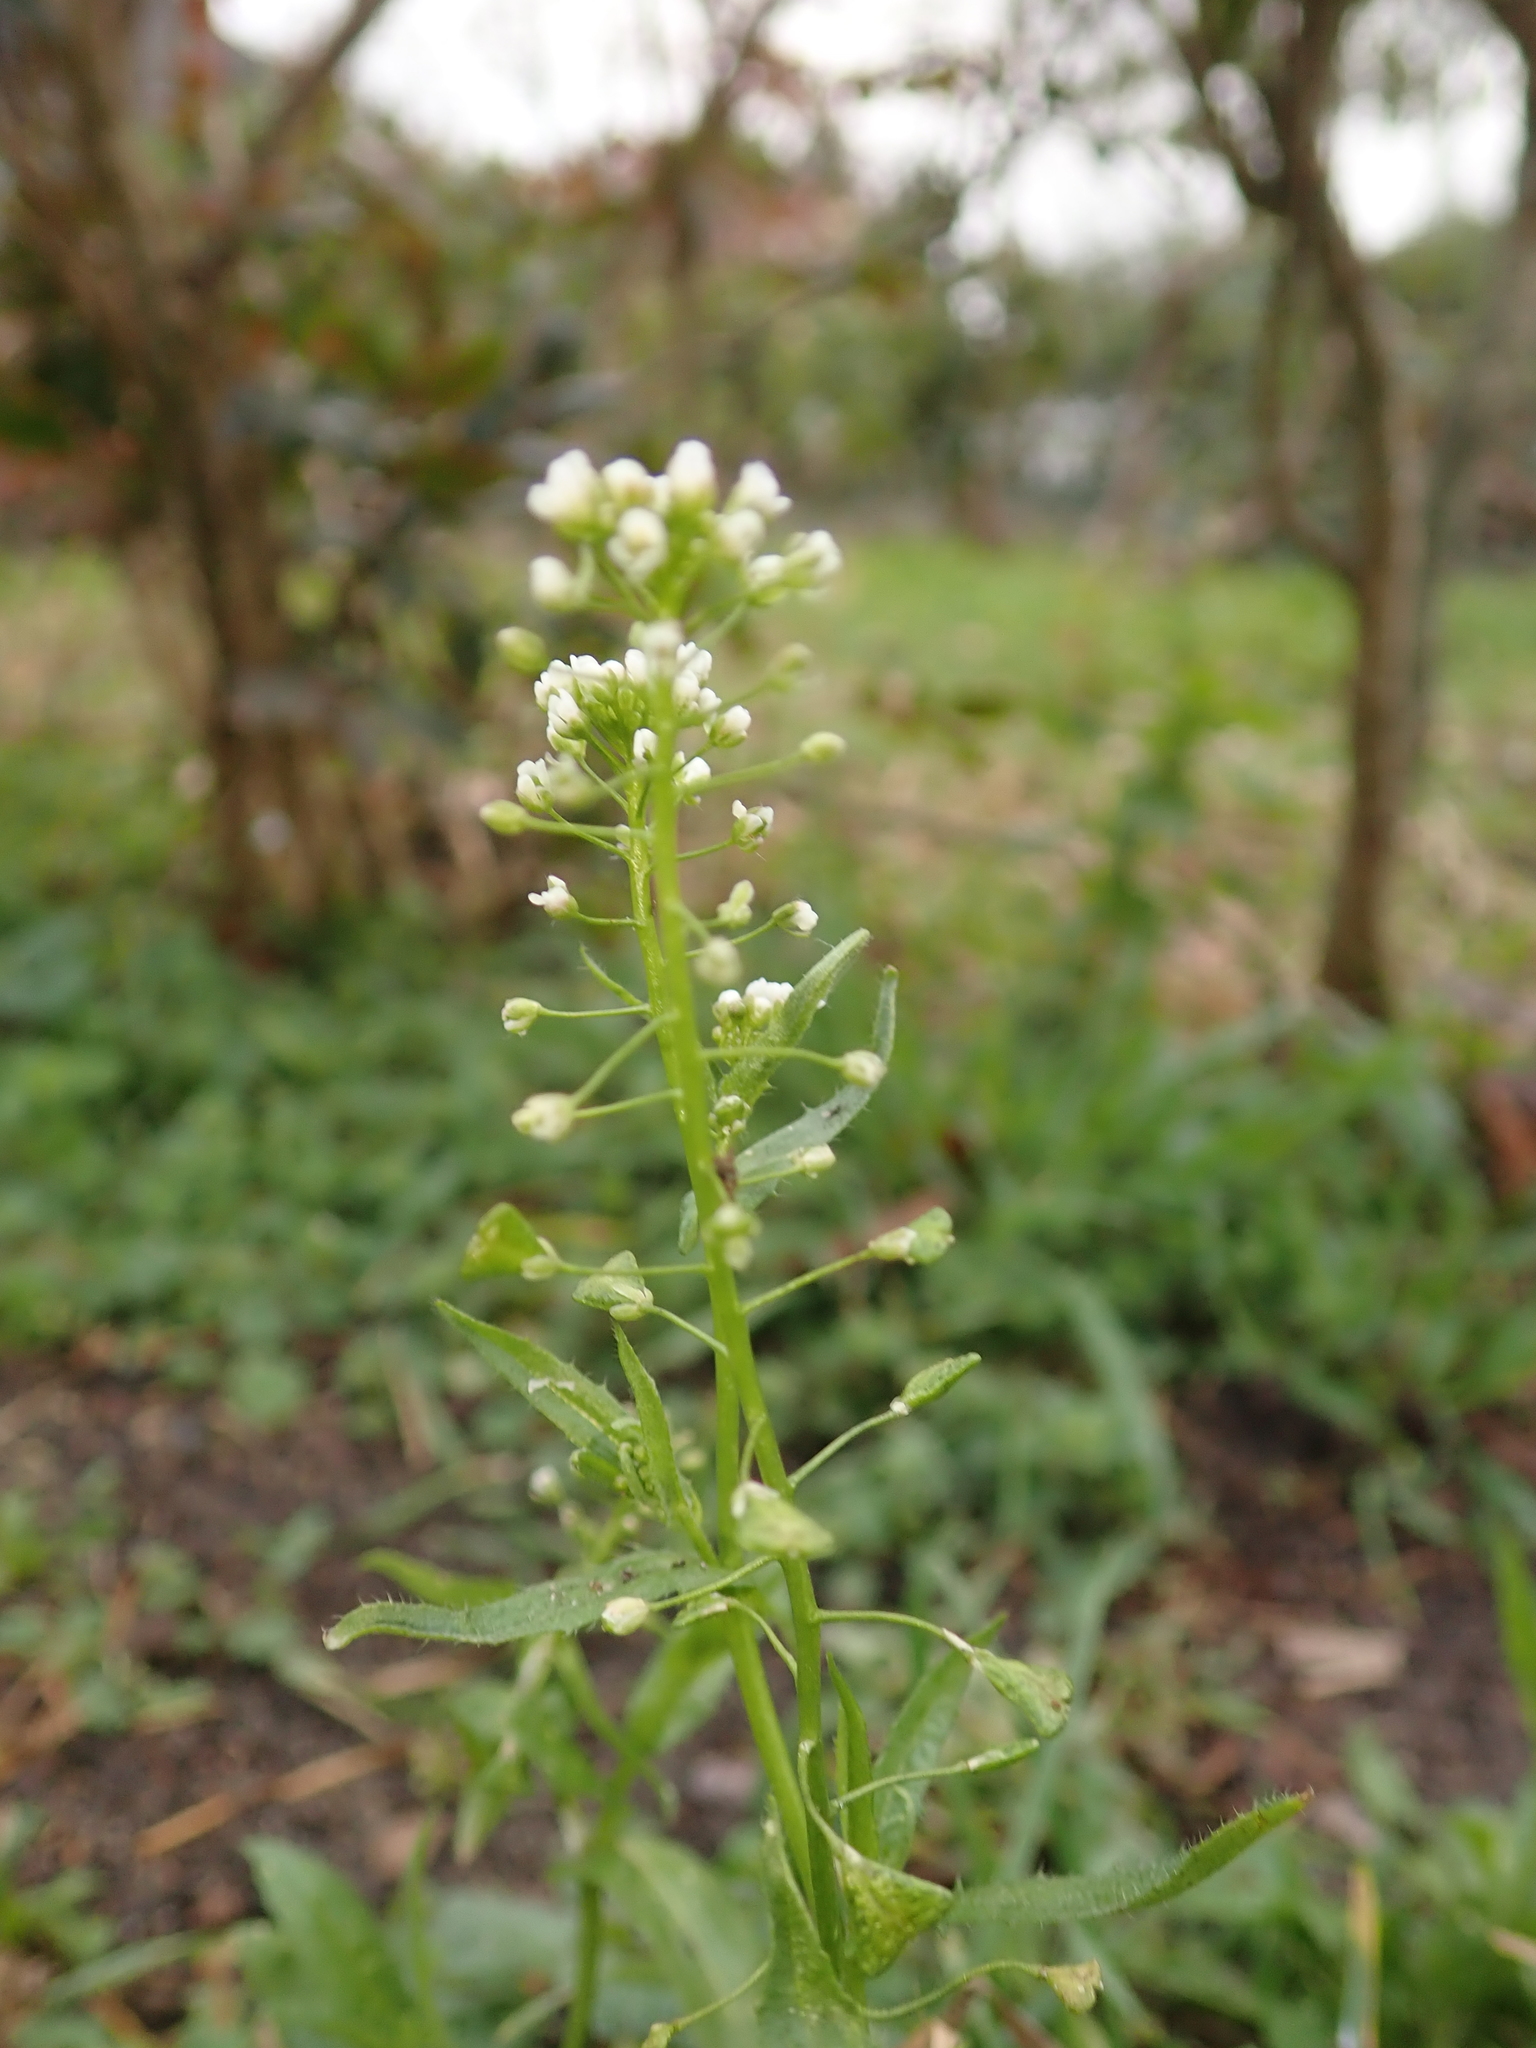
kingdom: Plantae
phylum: Tracheophyta
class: Magnoliopsida
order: Brassicales
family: Brassicaceae
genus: Capsella
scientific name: Capsella bursa-pastoris
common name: Shepherd's purse
